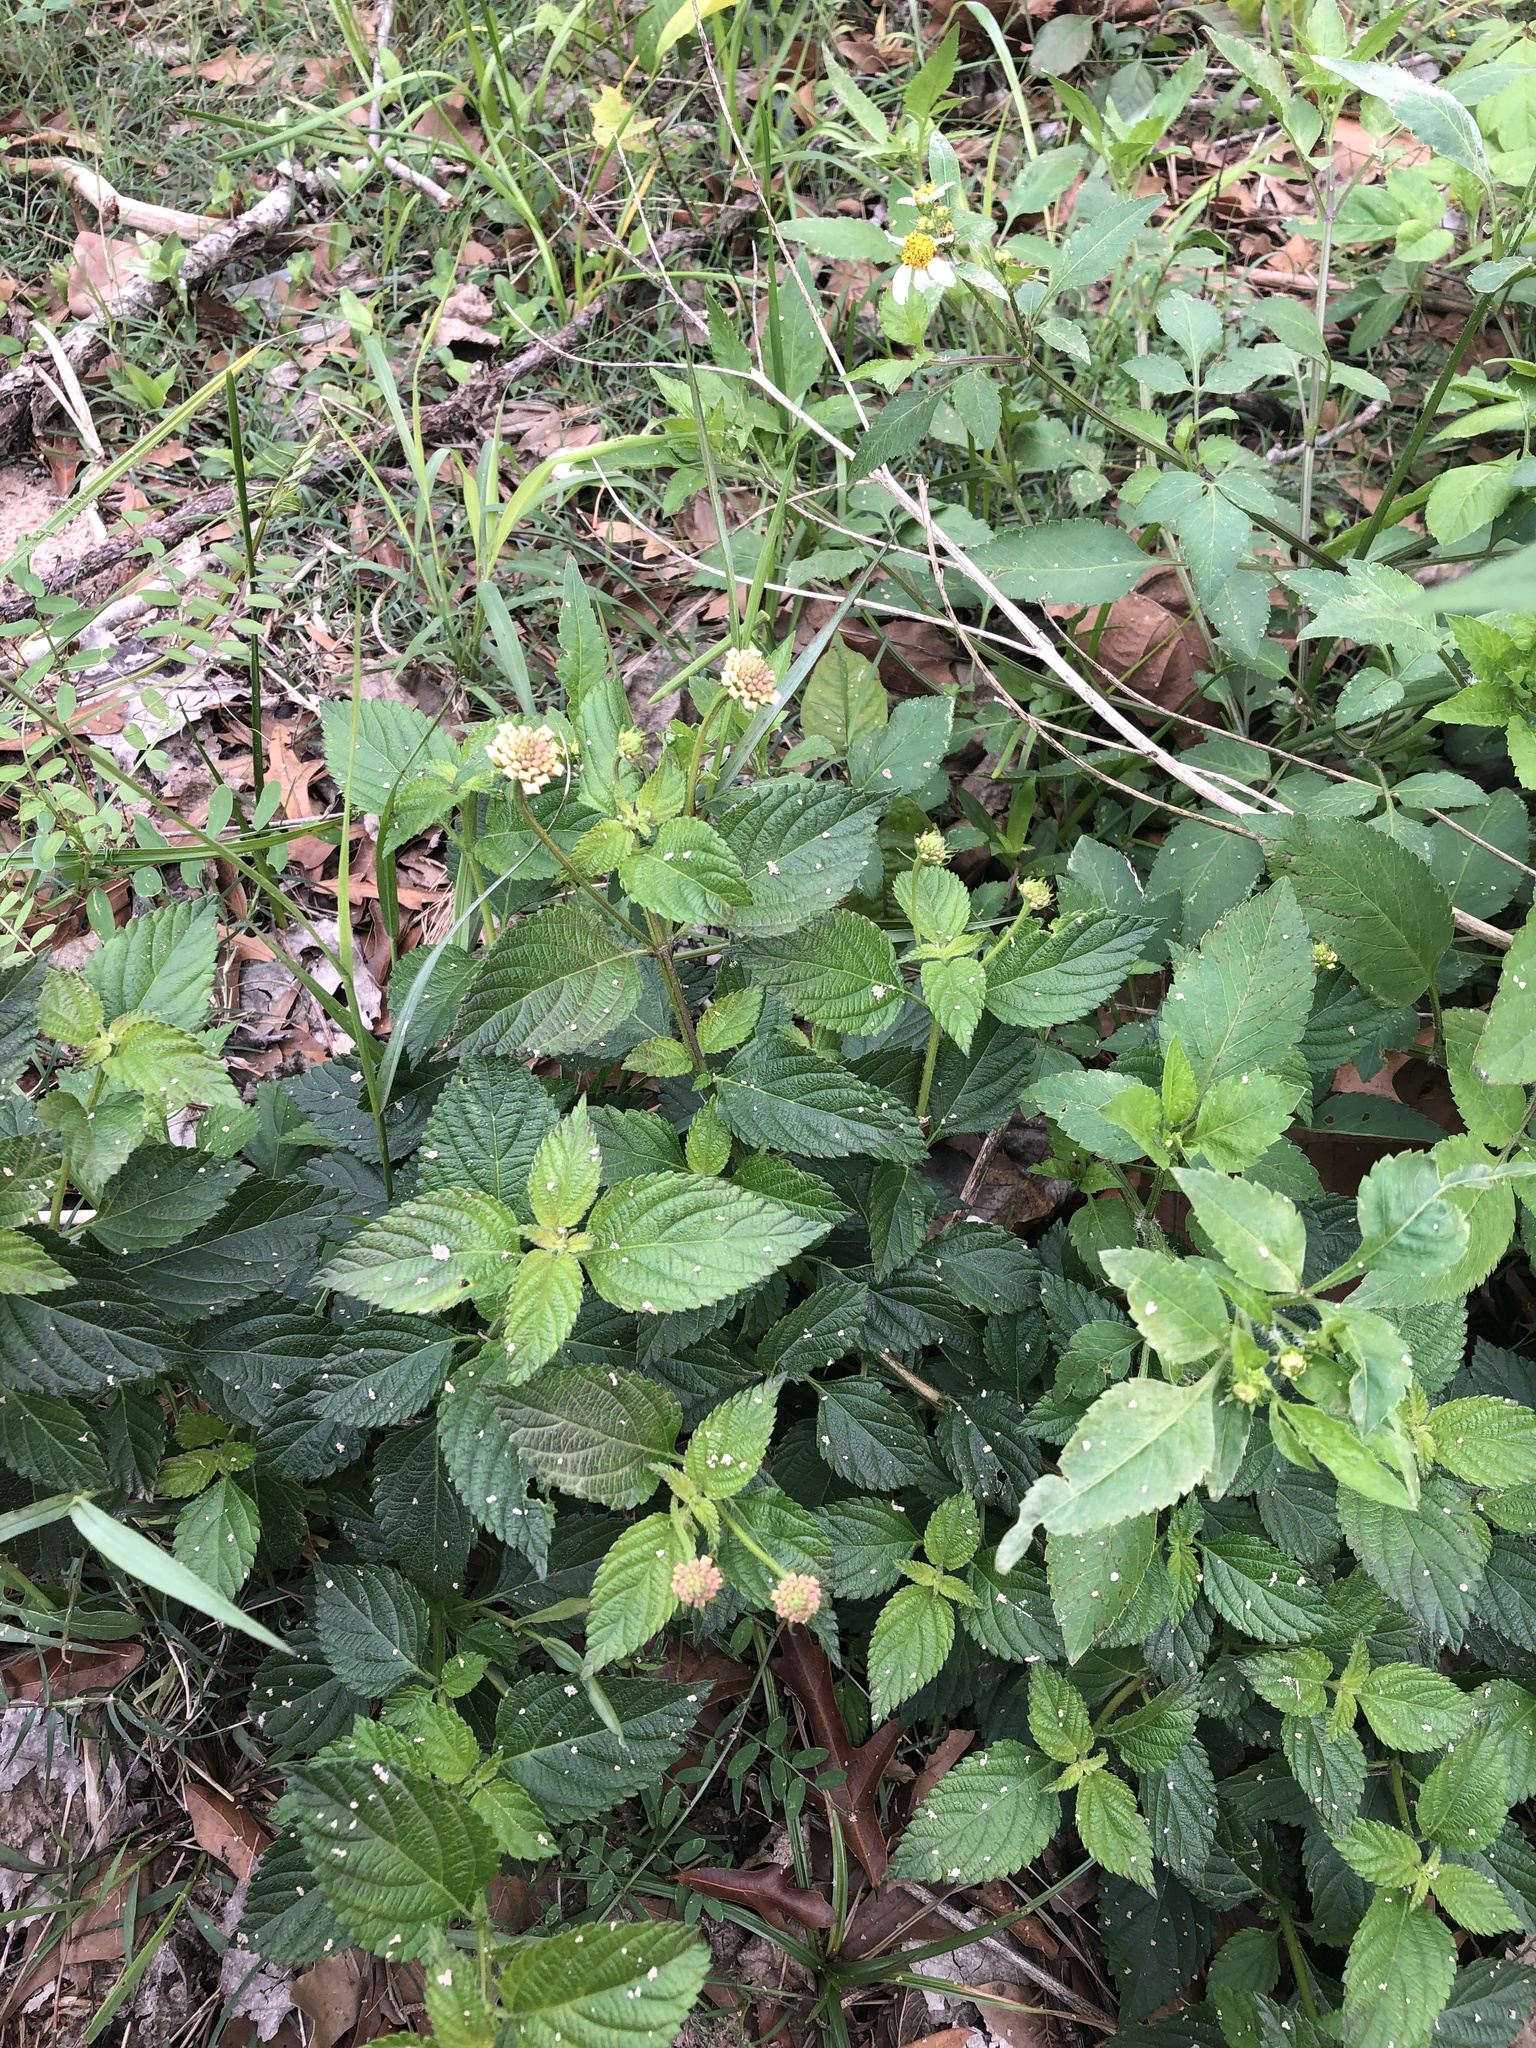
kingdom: Plantae
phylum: Tracheophyta
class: Magnoliopsida
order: Lamiales
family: Verbenaceae
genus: Lantana
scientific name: Lantana strigocamara
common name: Lantana
